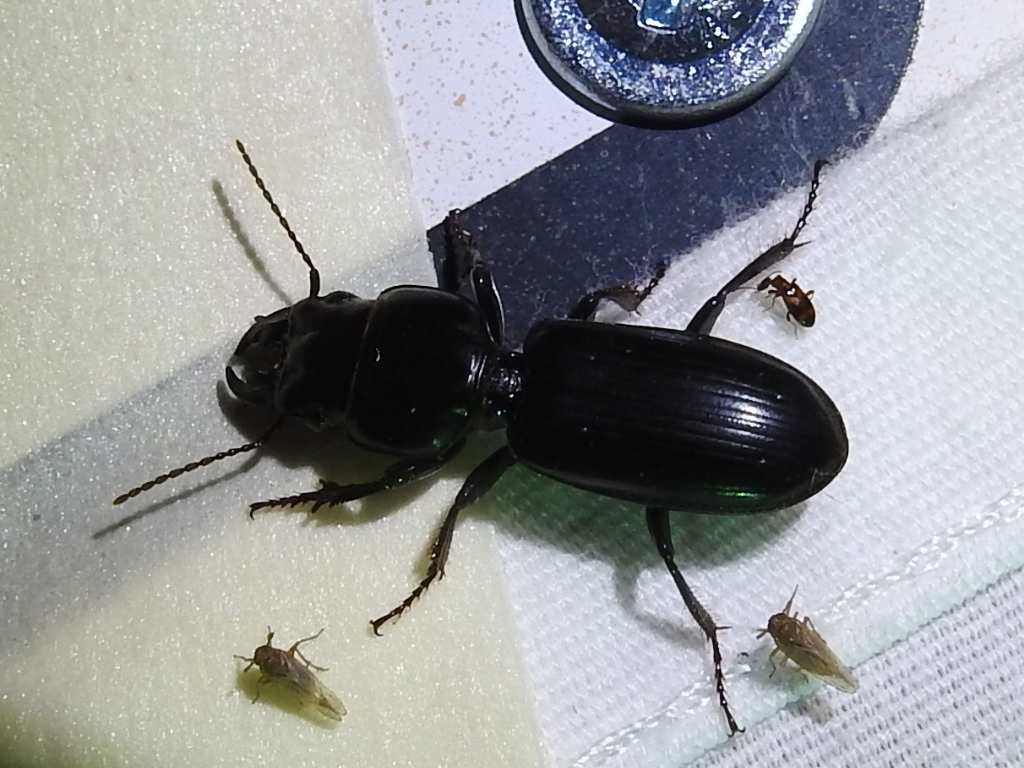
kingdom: Animalia
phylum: Arthropoda
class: Insecta
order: Coleoptera
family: Carabidae
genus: Scarites
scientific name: Scarites subterraneus
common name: Big-headed ground beetle
